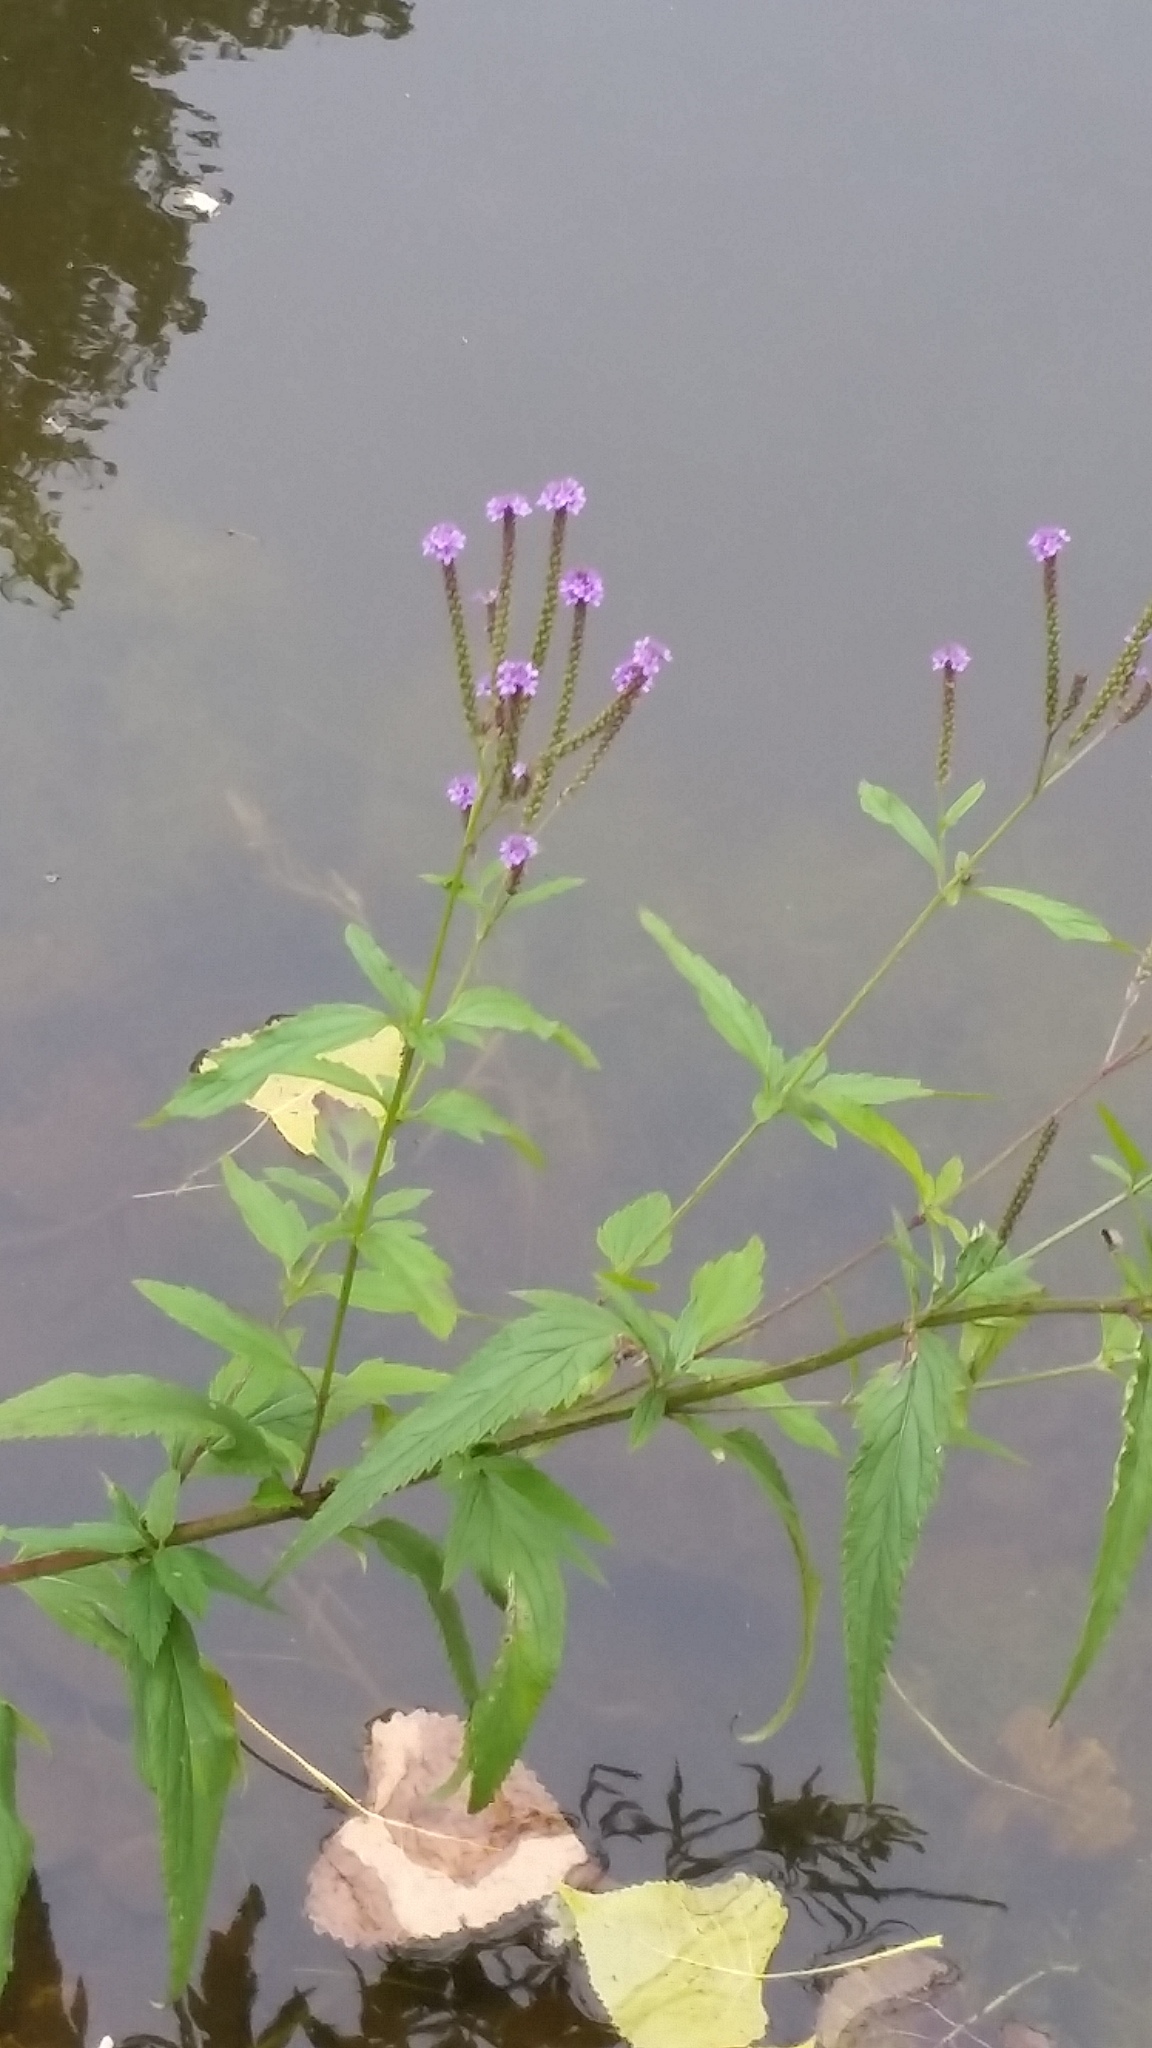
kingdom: Plantae
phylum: Tracheophyta
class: Magnoliopsida
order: Lamiales
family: Verbenaceae
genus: Verbena
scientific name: Verbena hastata
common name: American blue vervain
